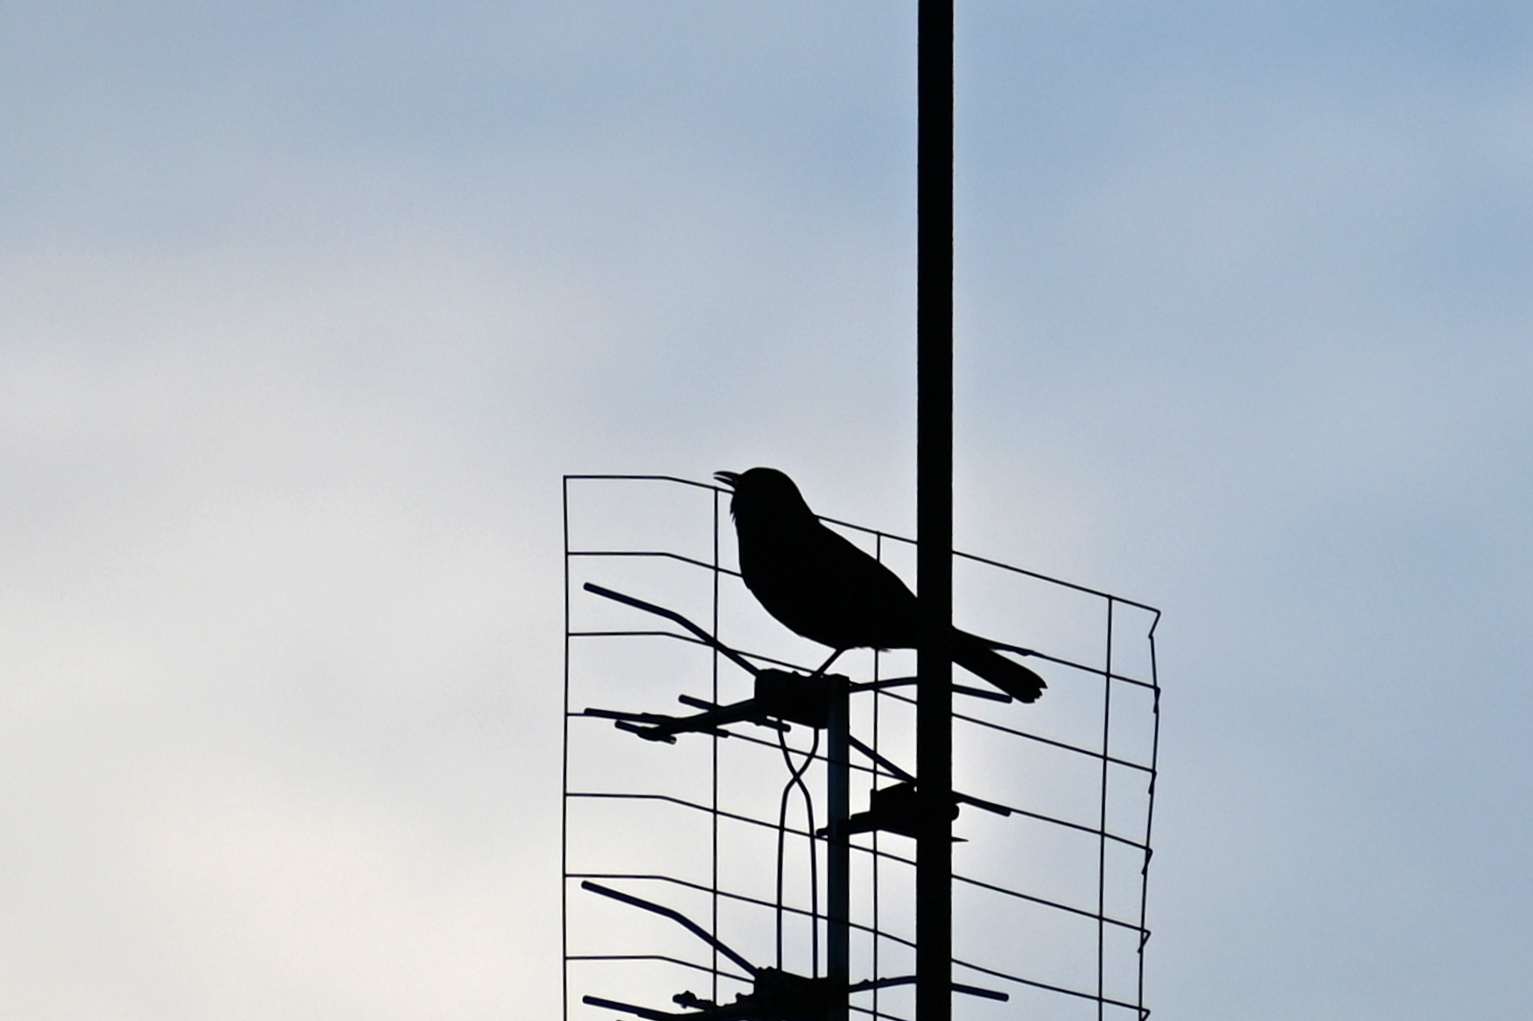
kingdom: Animalia
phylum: Chordata
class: Aves
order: Passeriformes
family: Turdidae
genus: Turdus
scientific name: Turdus merula
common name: Common blackbird
